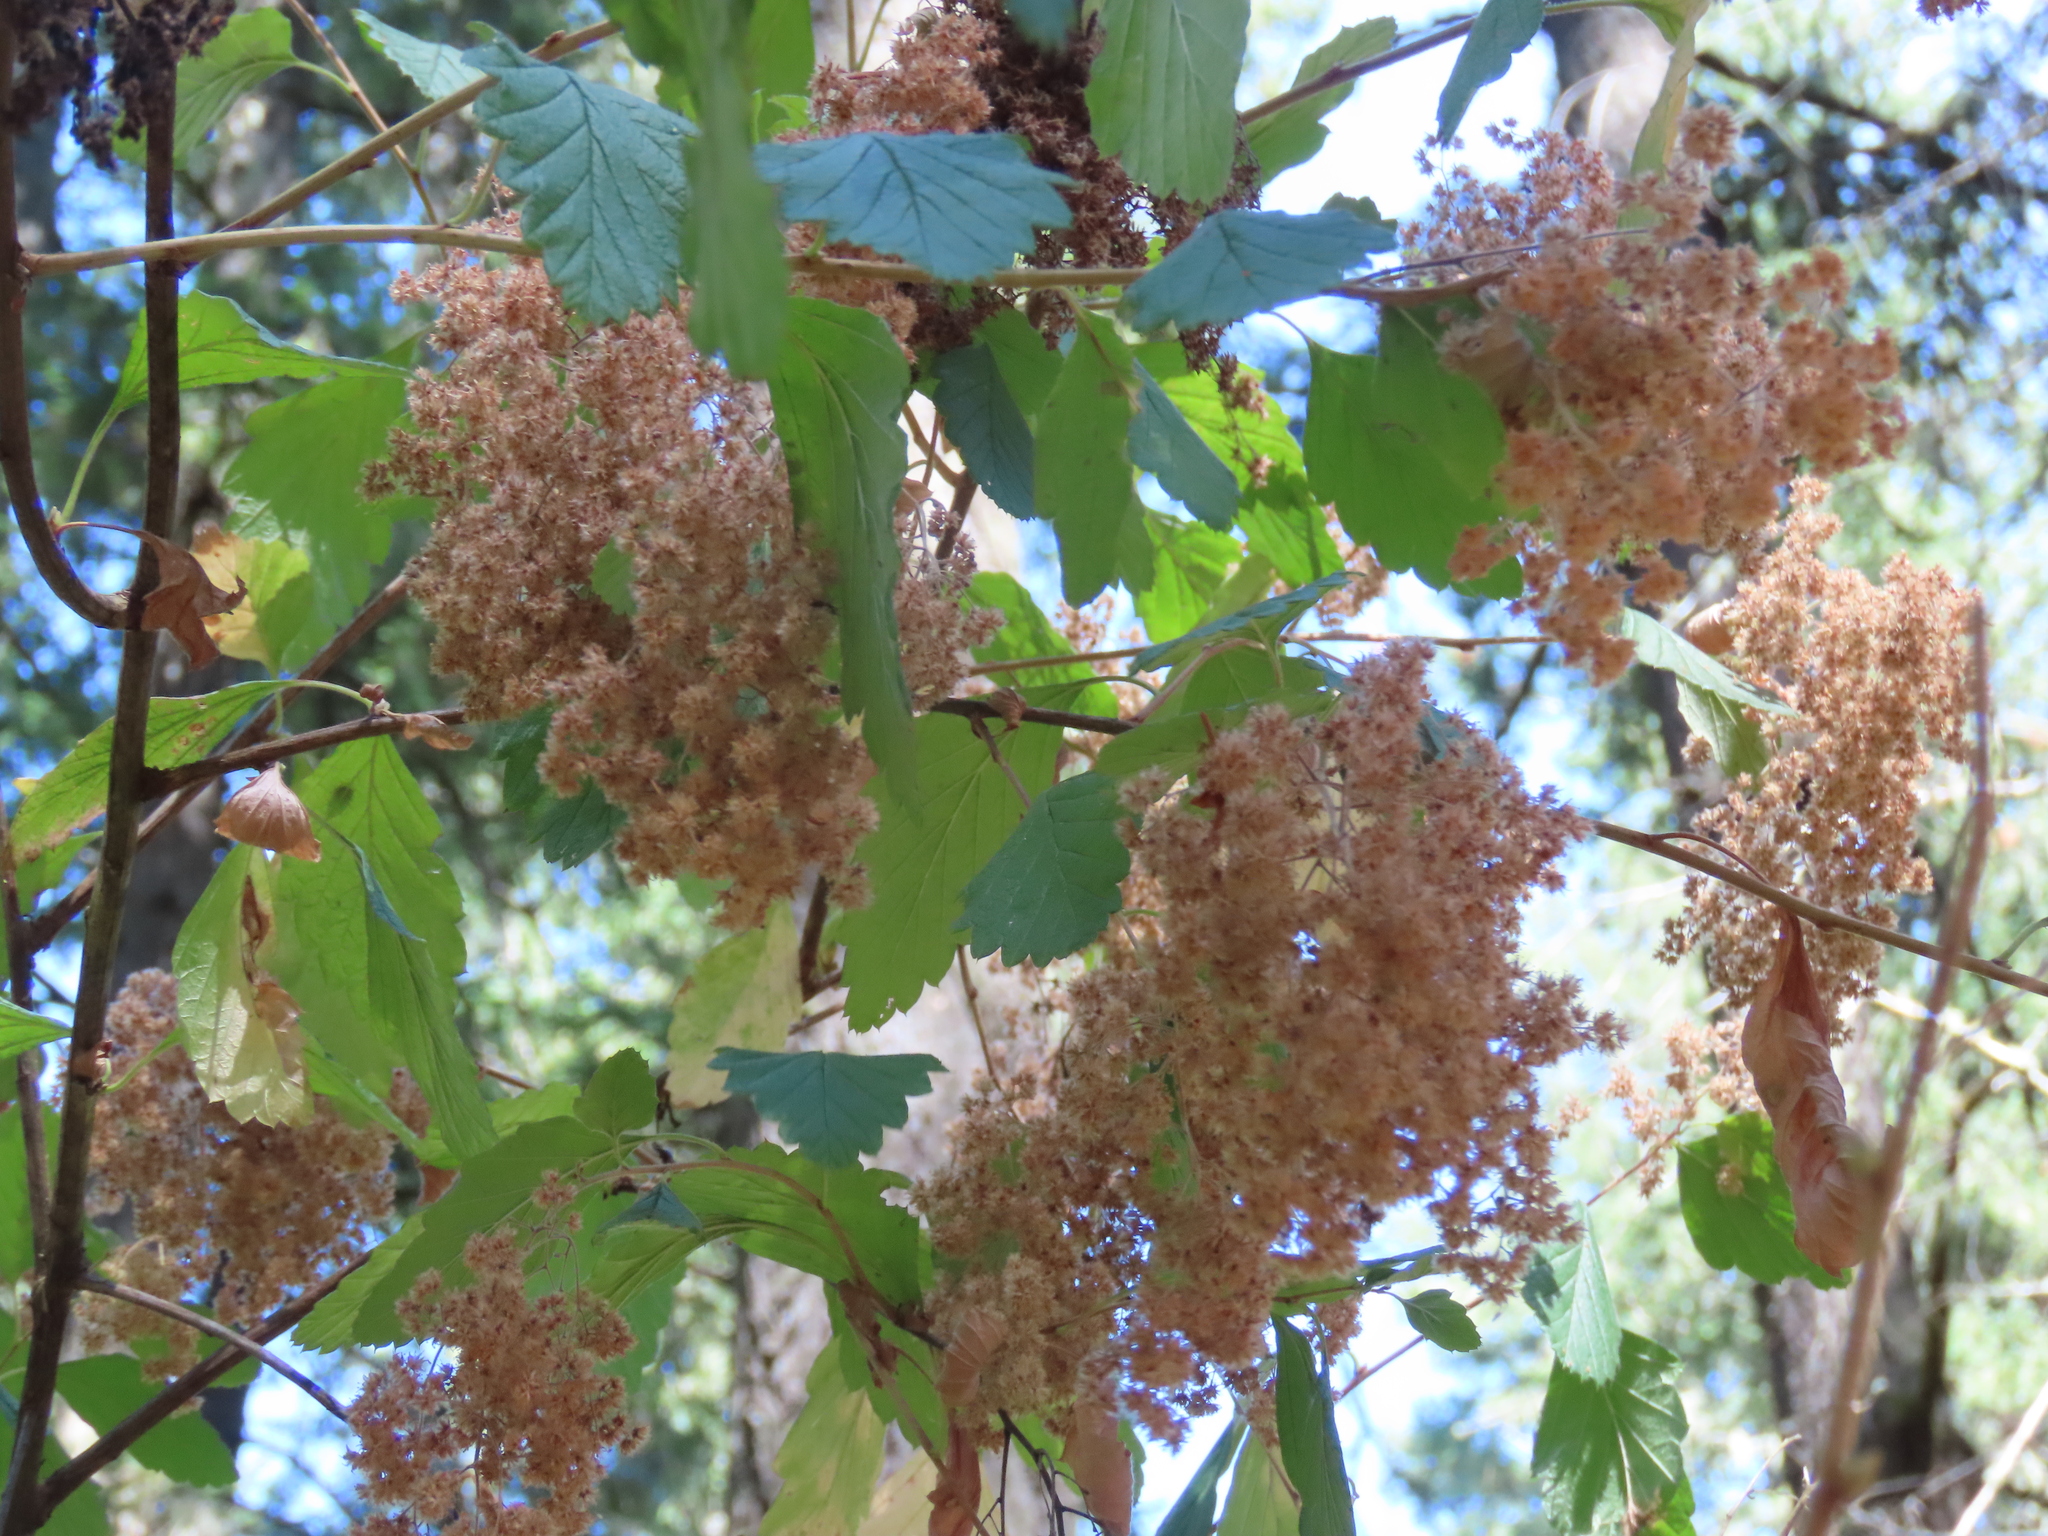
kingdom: Plantae
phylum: Tracheophyta
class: Magnoliopsida
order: Rosales
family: Rosaceae
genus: Holodiscus
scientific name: Holodiscus discolor
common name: Oceanspray
